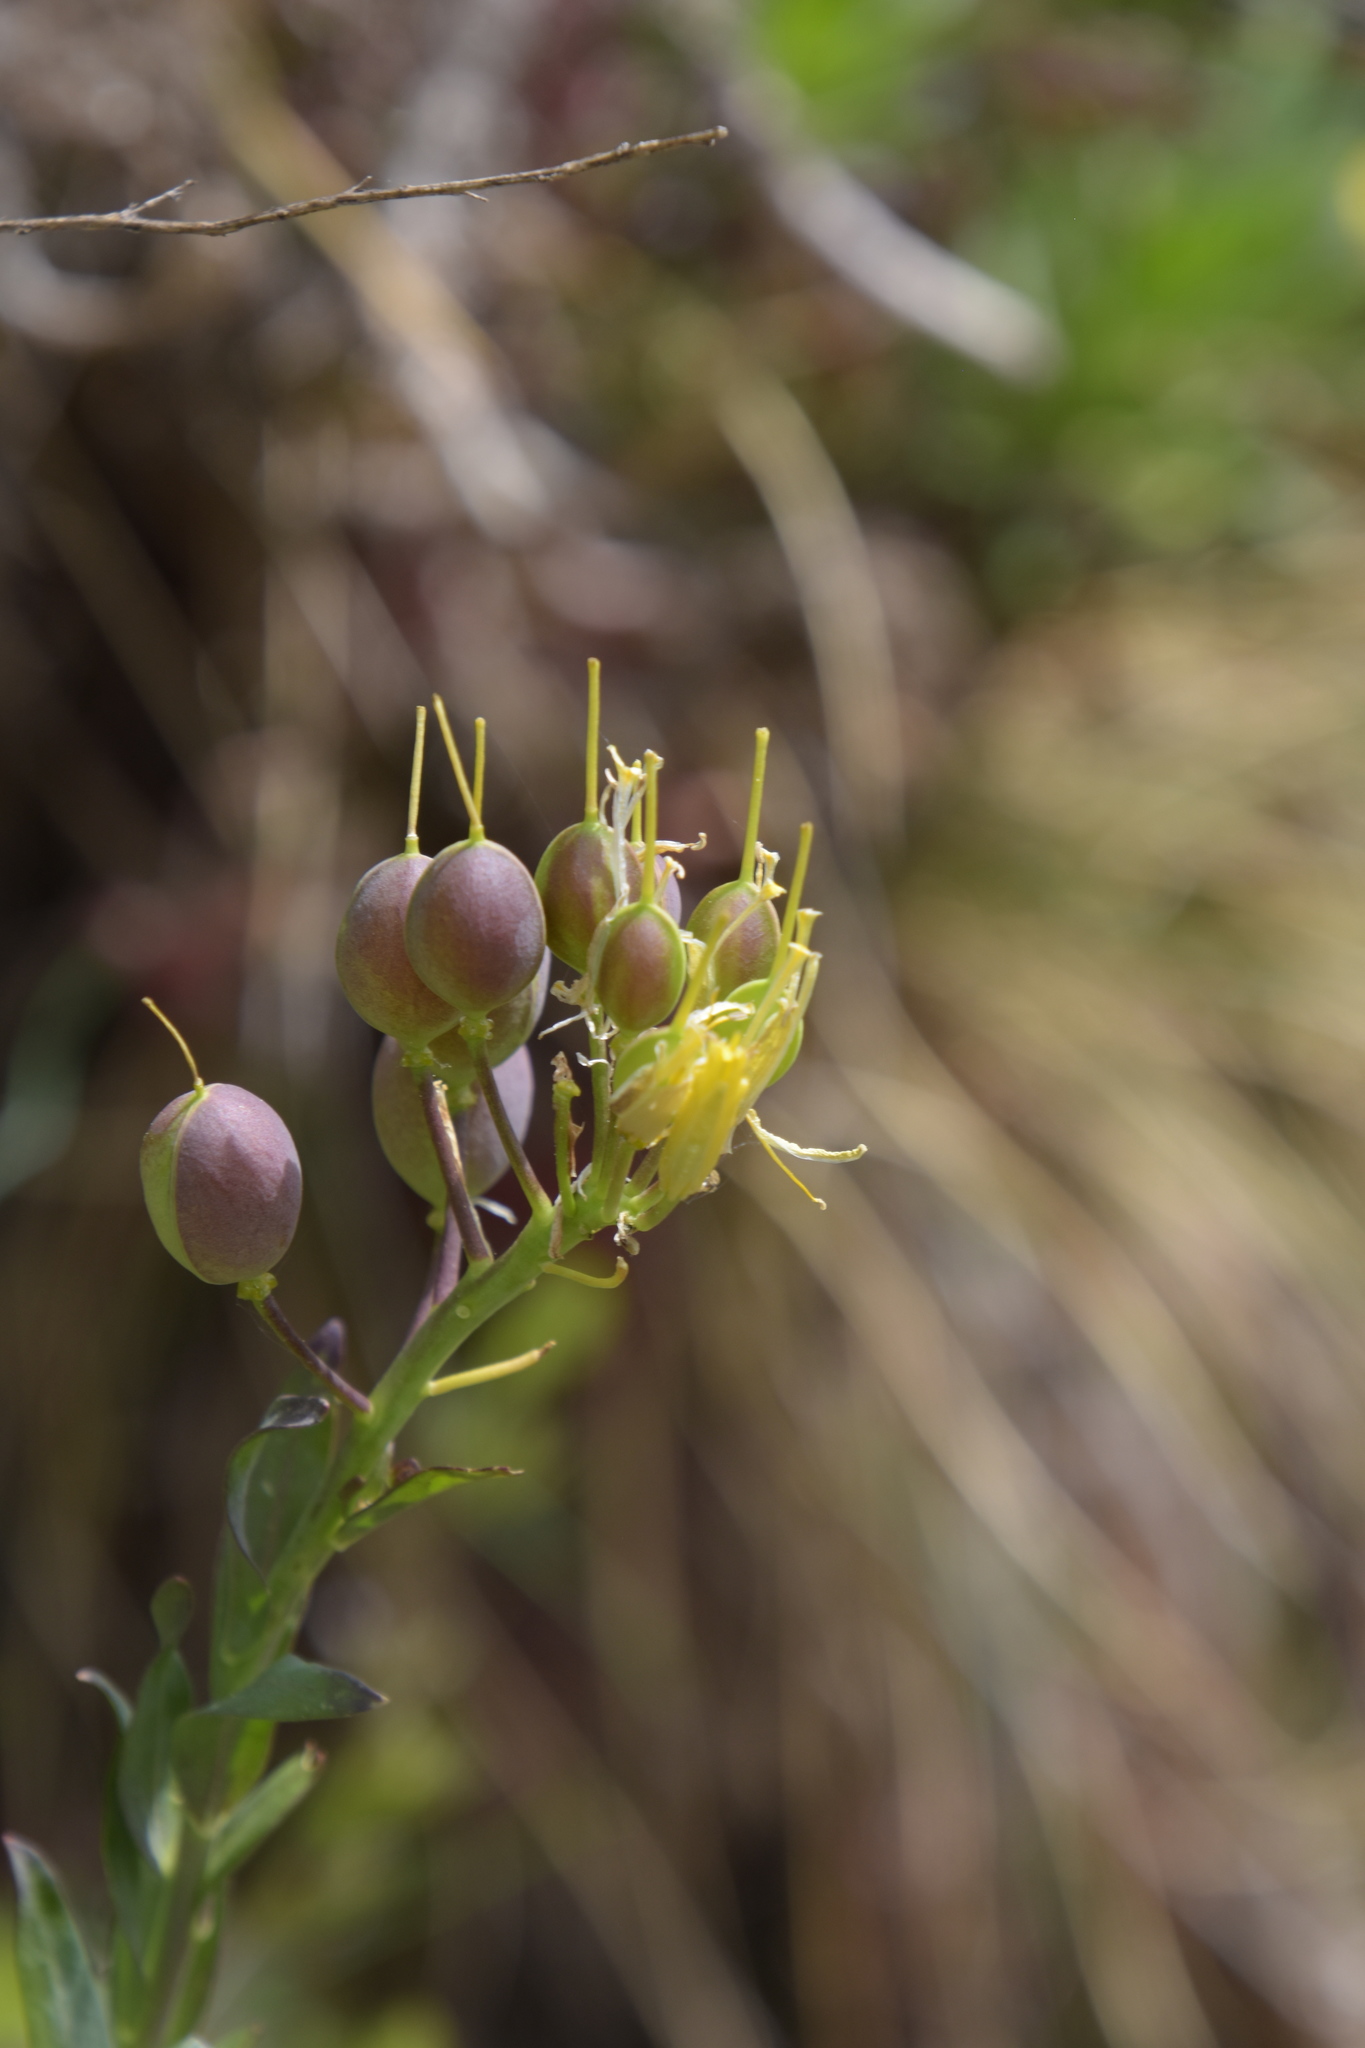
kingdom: Plantae
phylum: Tracheophyta
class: Magnoliopsida
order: Brassicales
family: Brassicaceae
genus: Alyssoides
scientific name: Alyssoides utriculata
